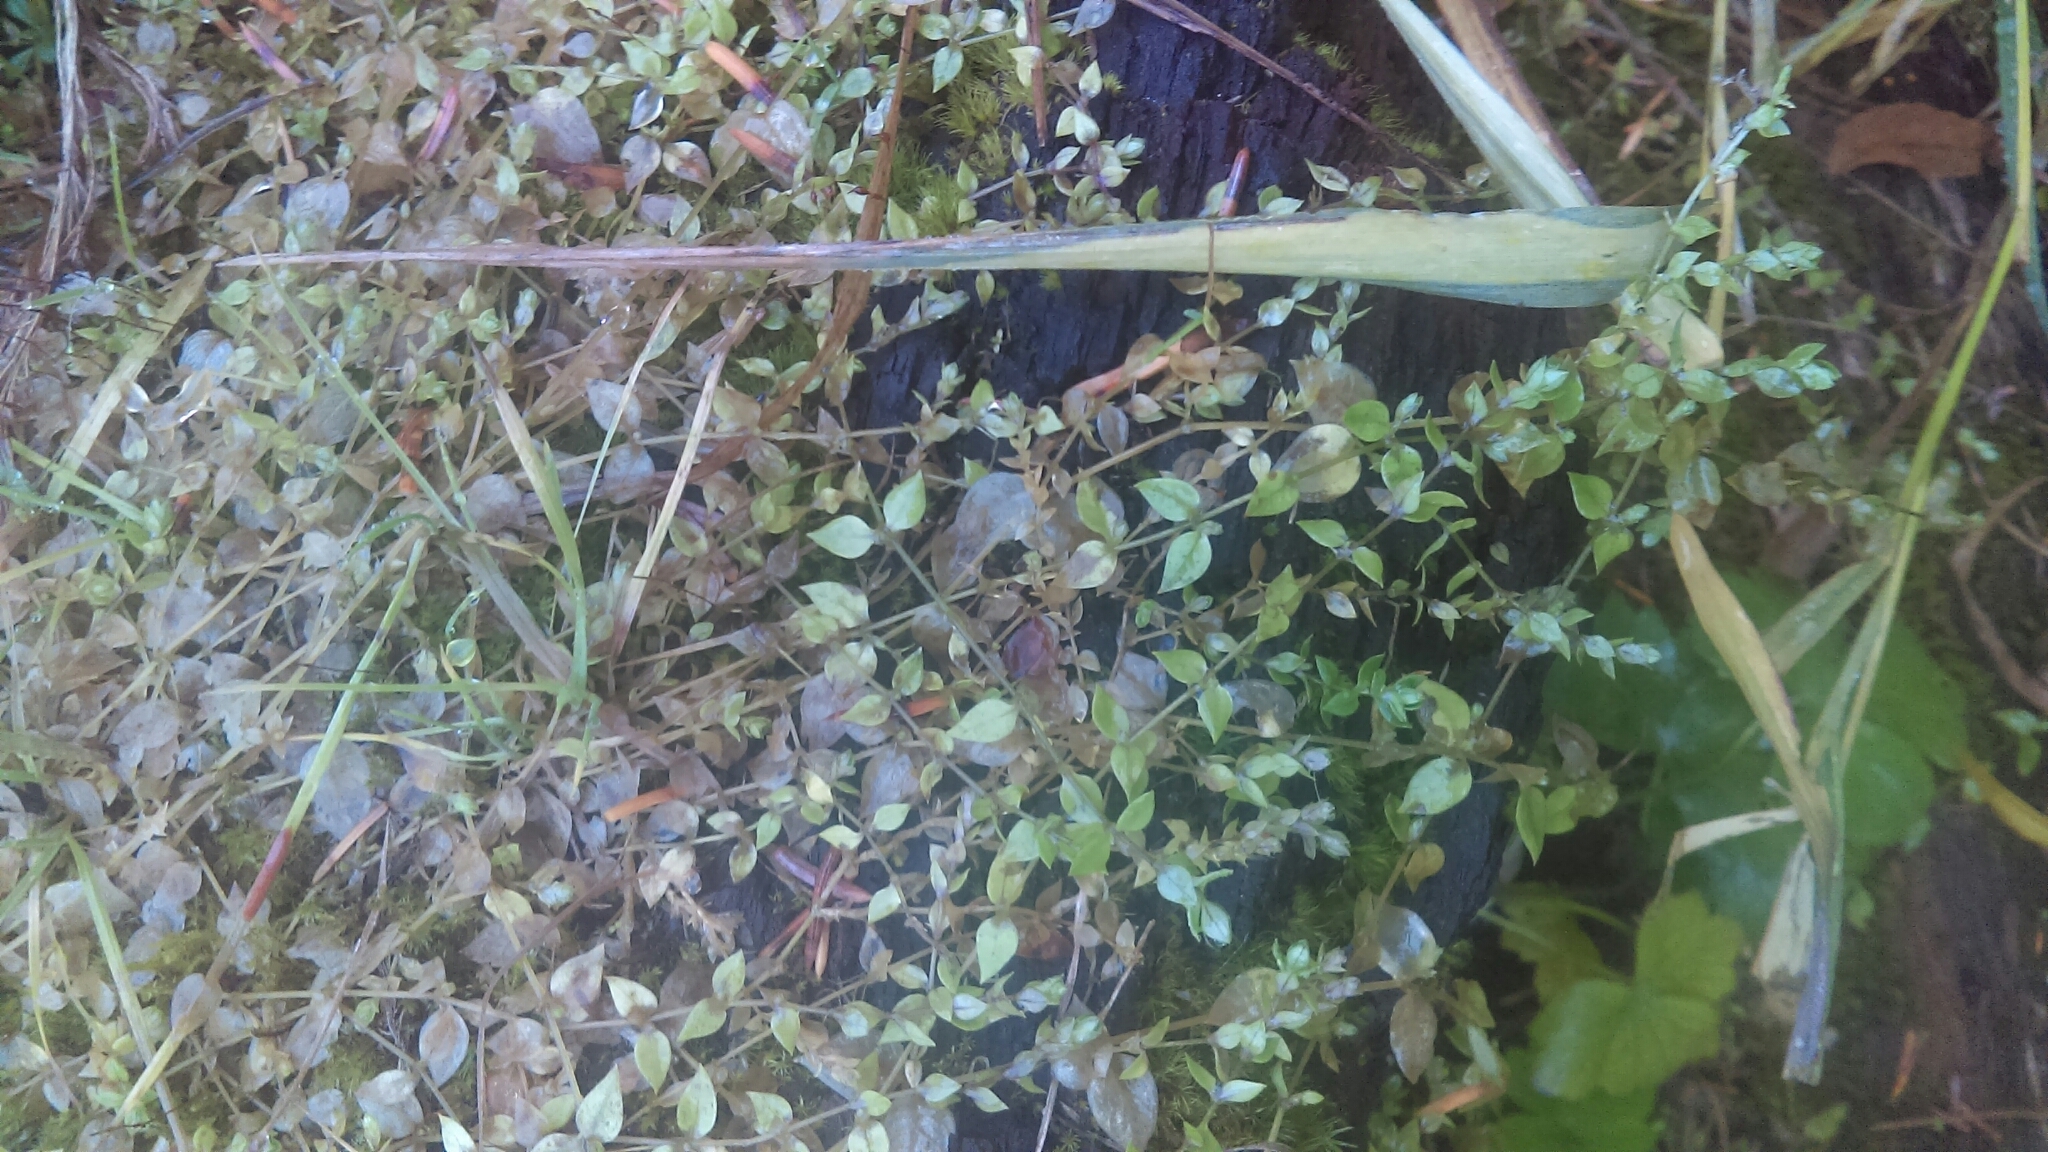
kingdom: Plantae
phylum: Tracheophyta
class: Magnoliopsida
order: Caryophyllales
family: Caryophyllaceae
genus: Stellaria
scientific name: Stellaria crispa
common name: Crimped stitchwort
